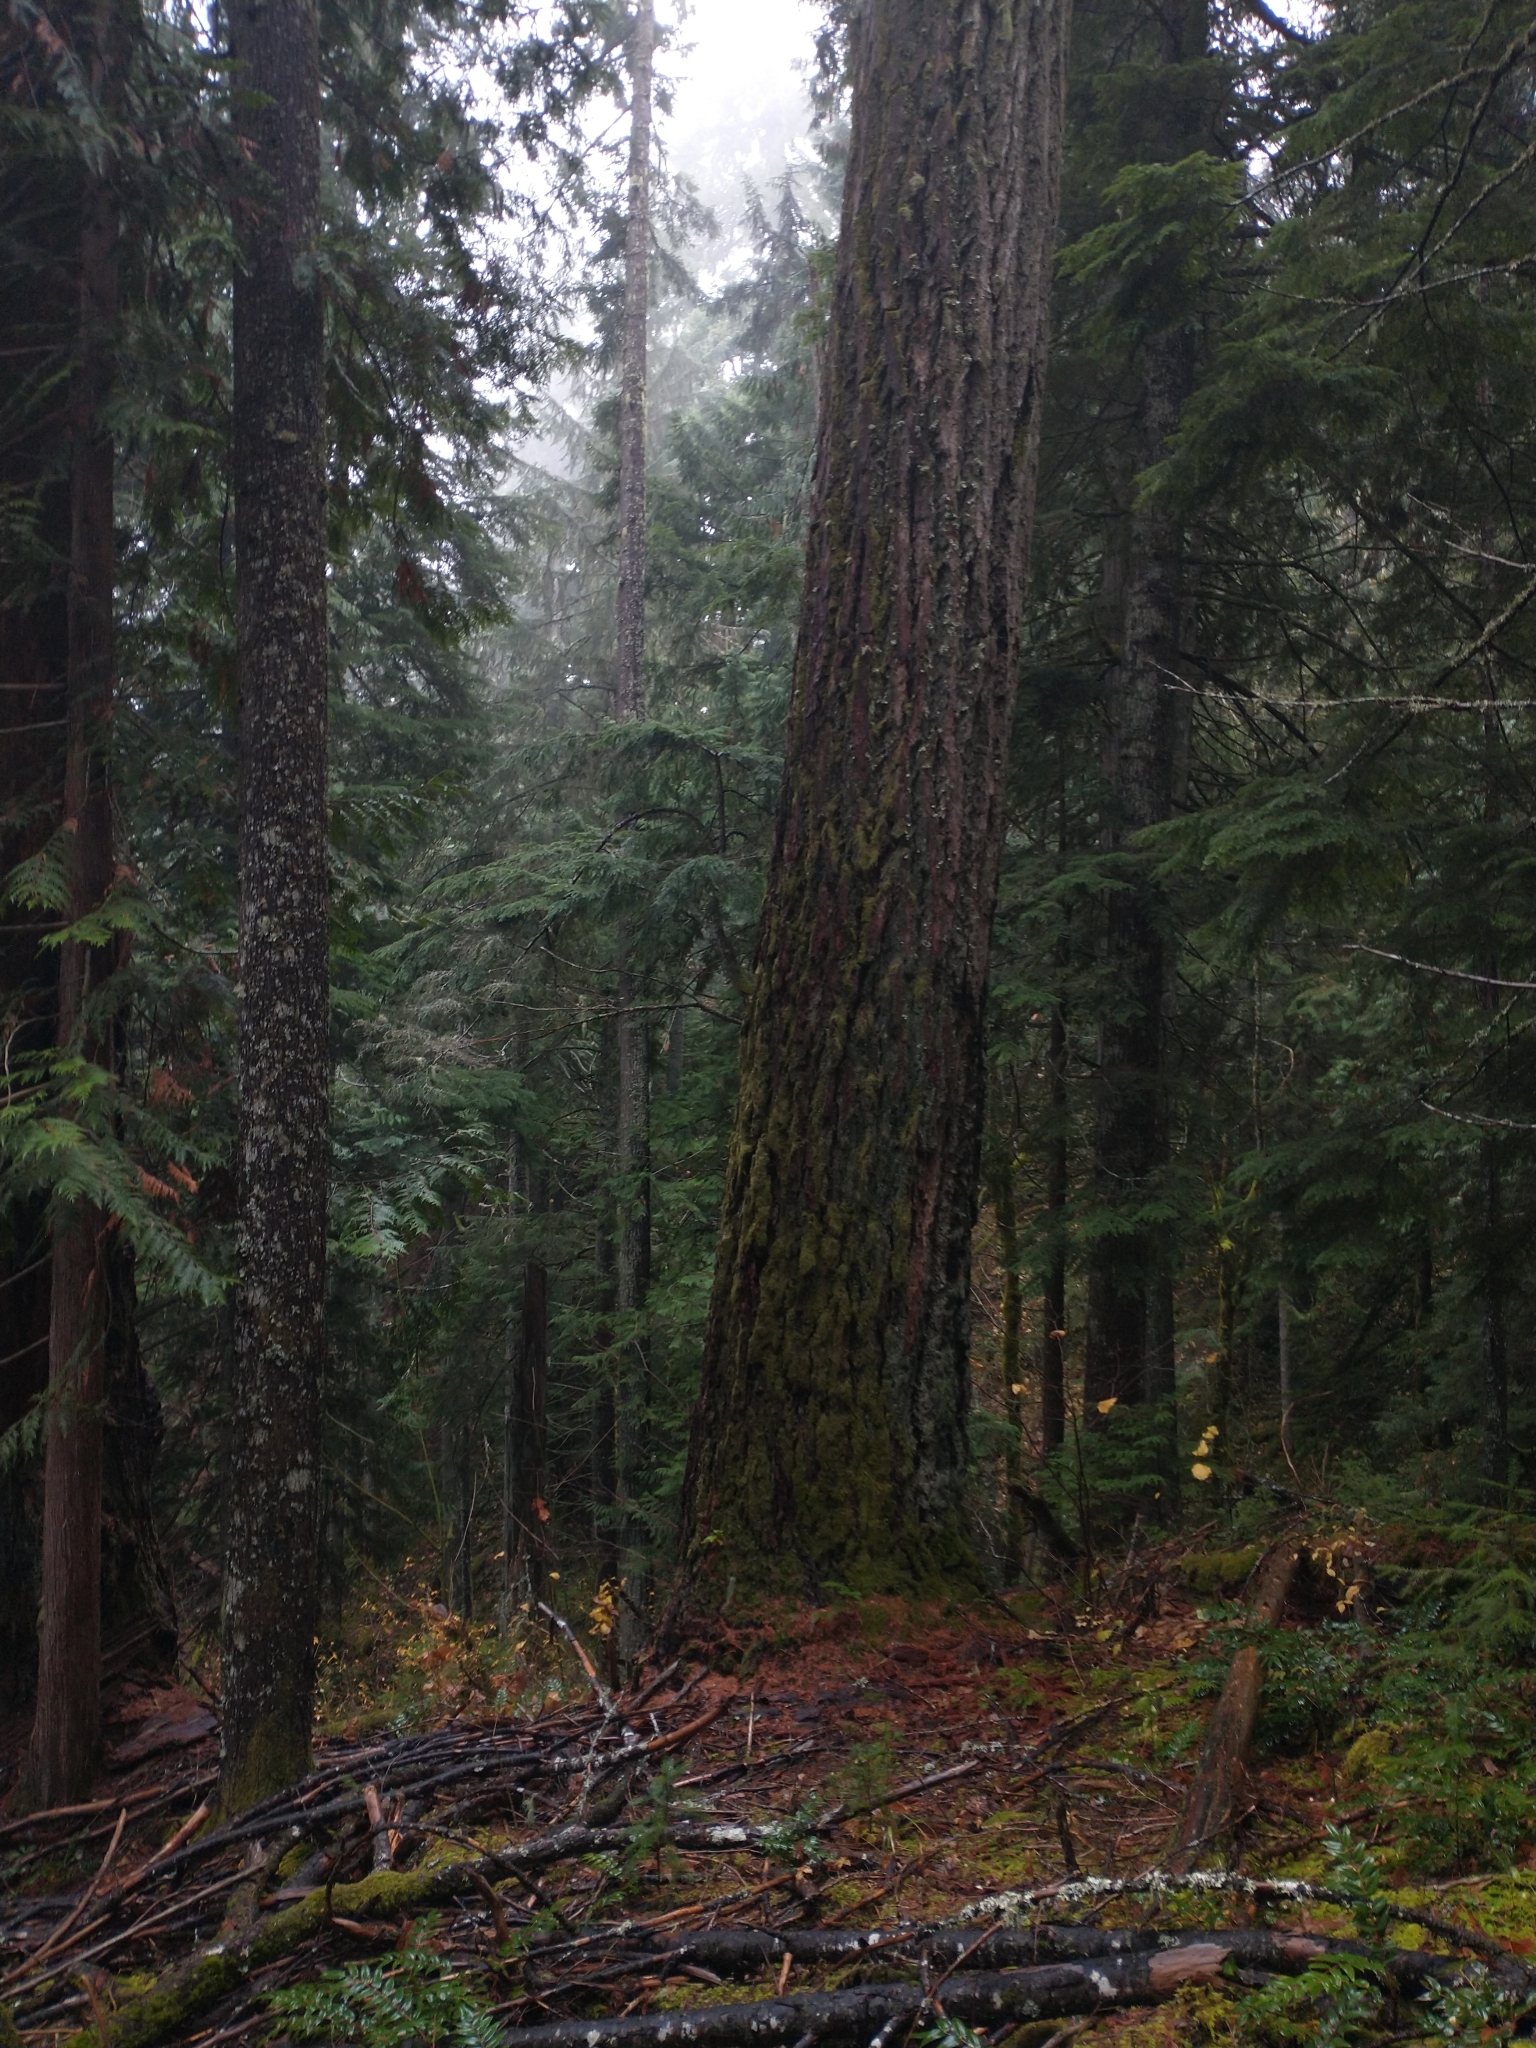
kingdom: Plantae
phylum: Tracheophyta
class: Pinopsida
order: Pinales
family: Pinaceae
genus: Pseudotsuga
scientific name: Pseudotsuga menziesii
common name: Douglas fir
